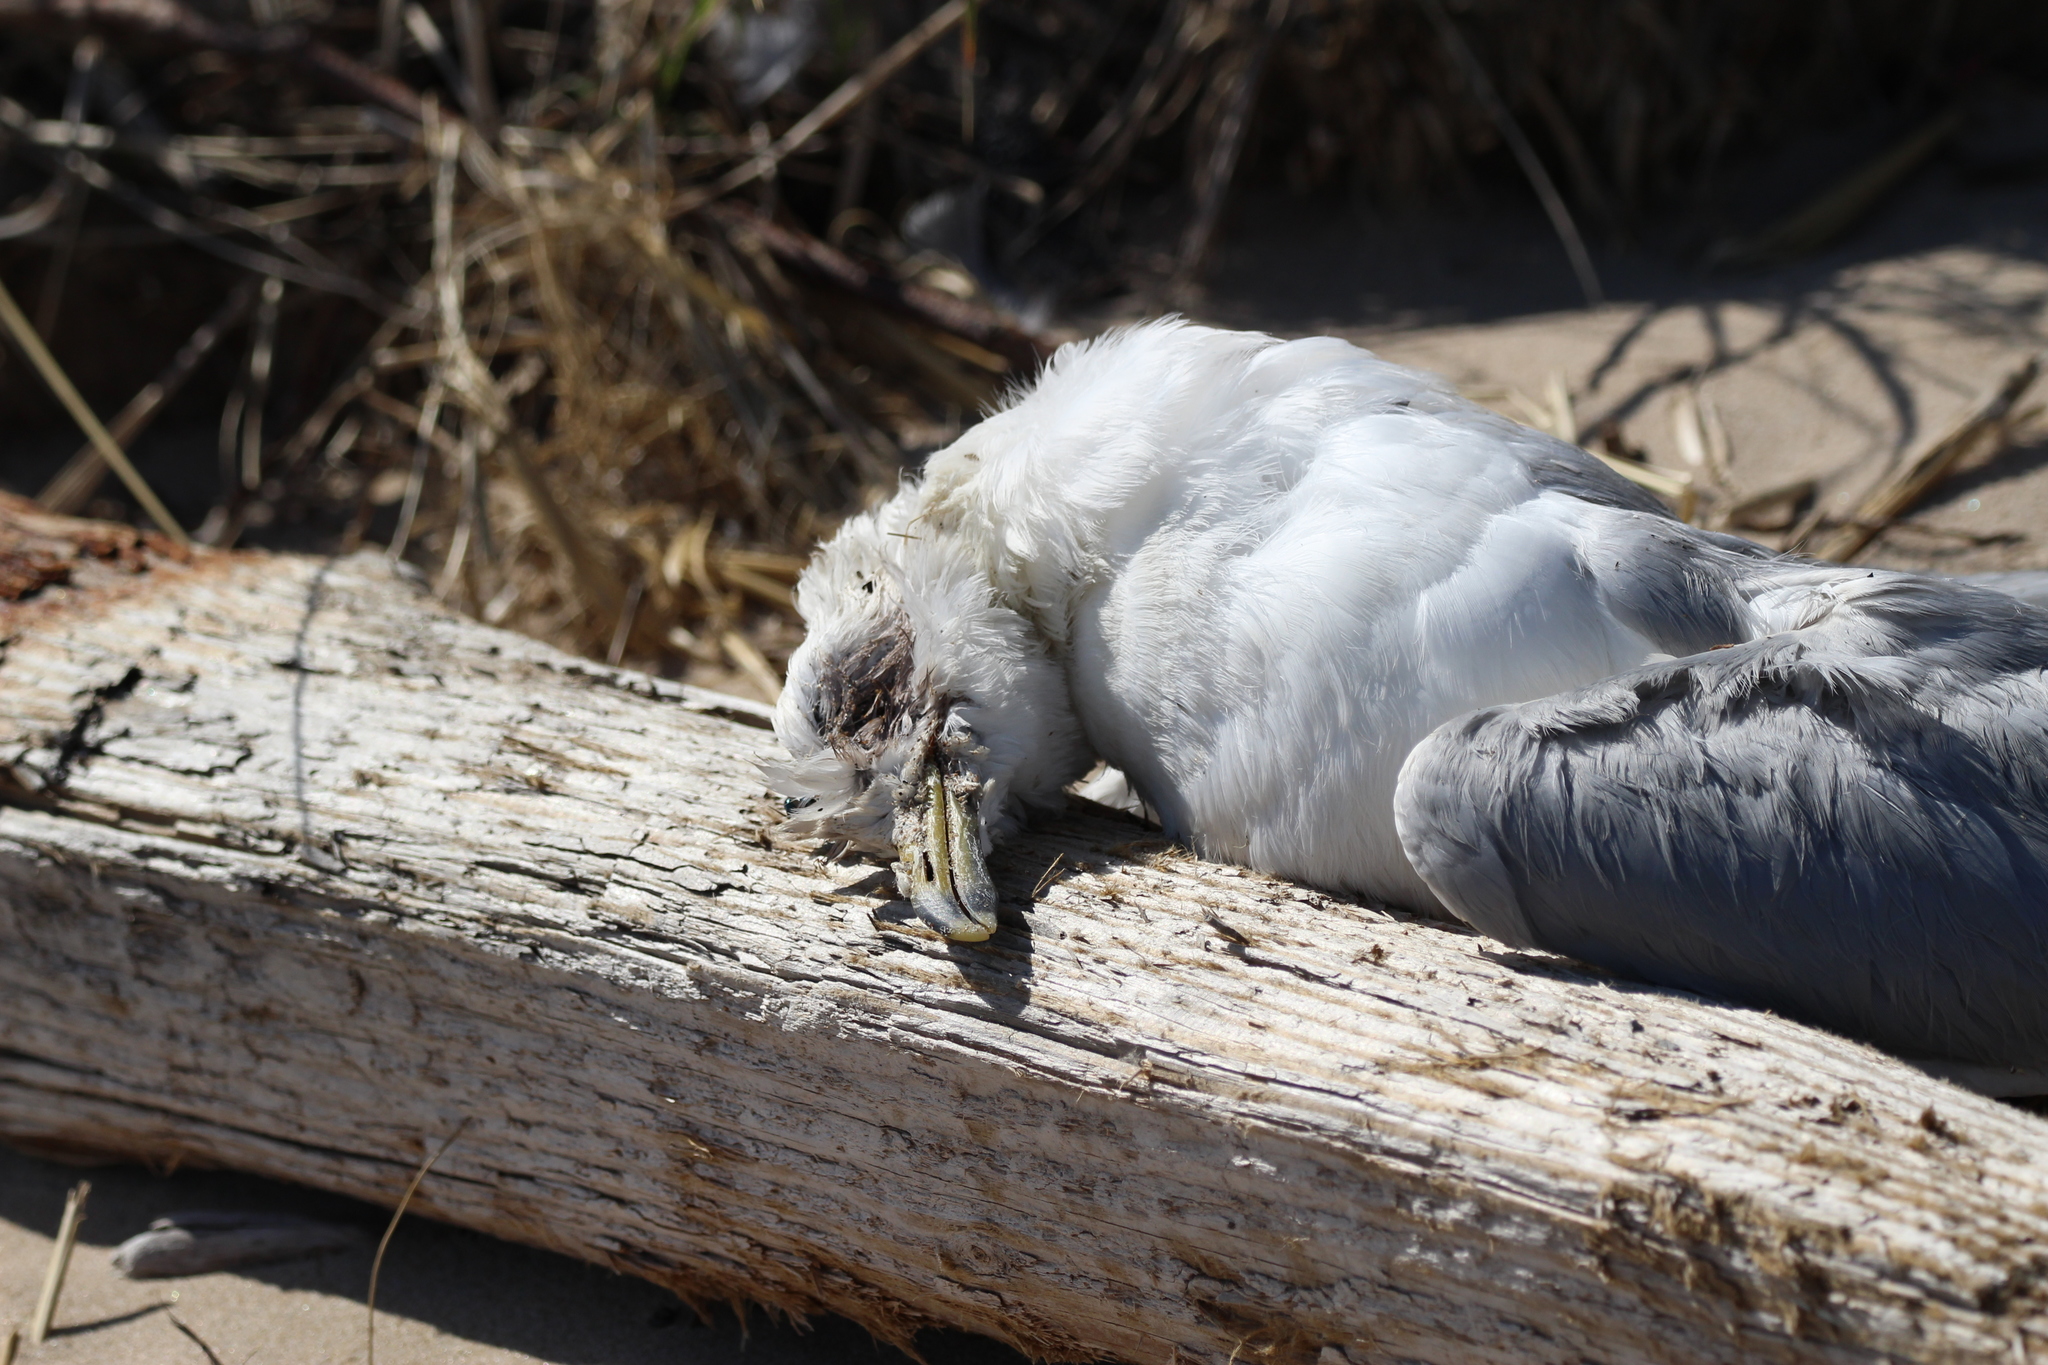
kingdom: Animalia
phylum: Chordata
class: Aves
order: Charadriiformes
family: Laridae
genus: Larus
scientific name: Larus delawarensis
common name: Ring-billed gull
